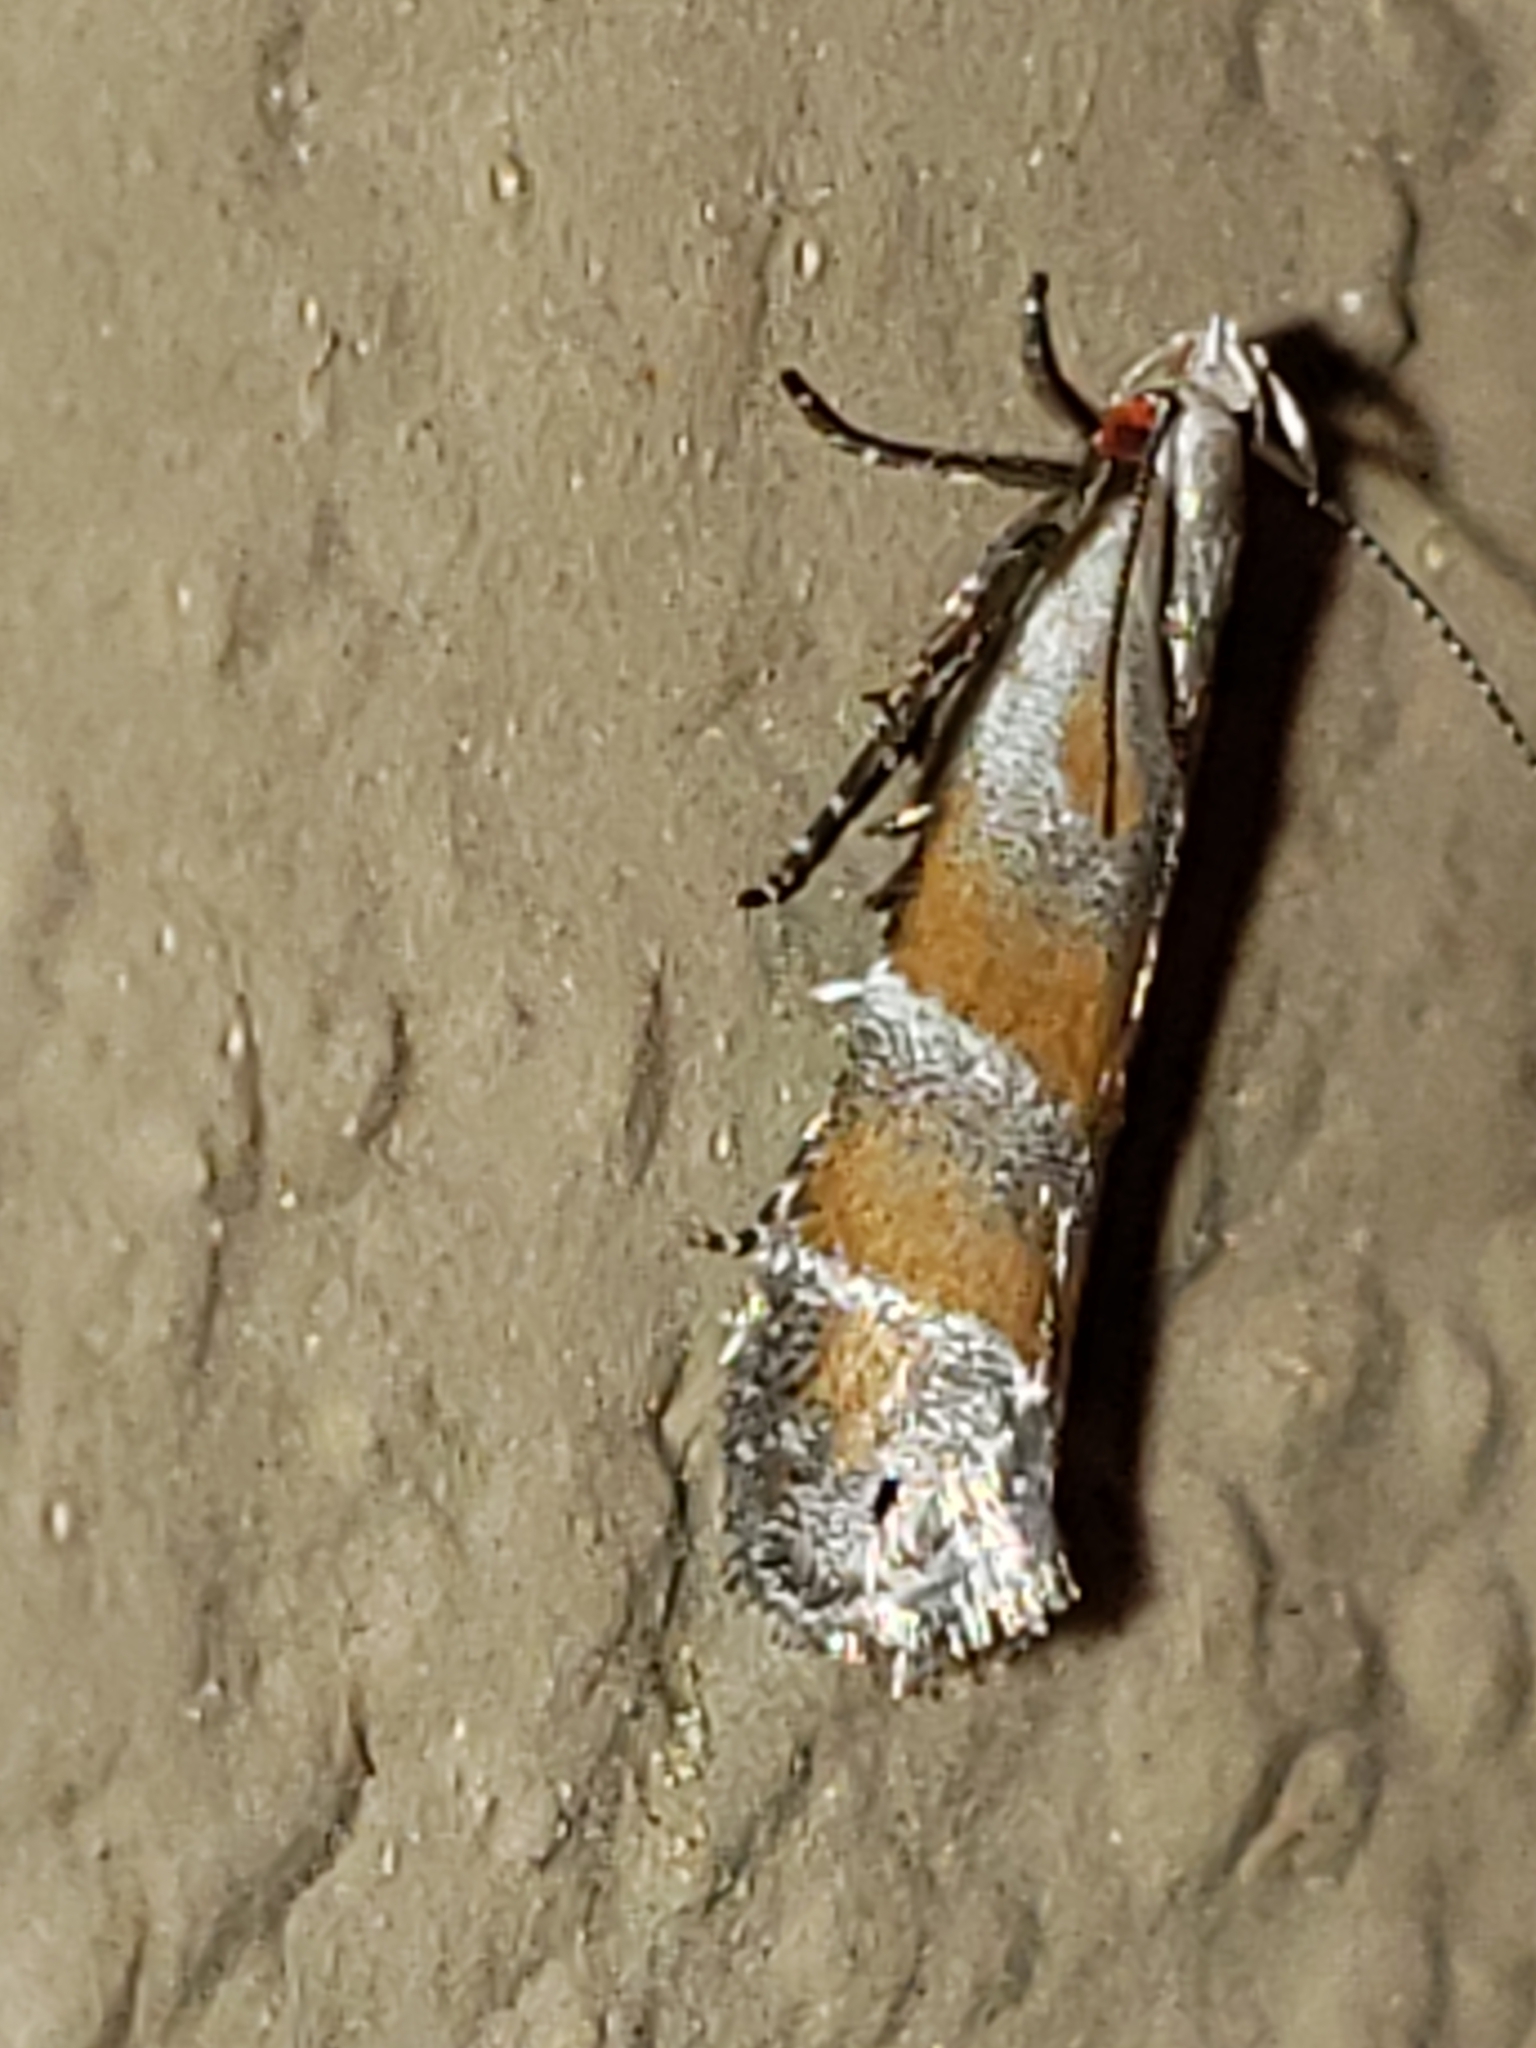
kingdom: Animalia
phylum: Arthropoda
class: Insecta
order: Lepidoptera
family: Gelechiidae
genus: Battaristis
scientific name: Battaristis vittella
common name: Orange stripe-backed moth
